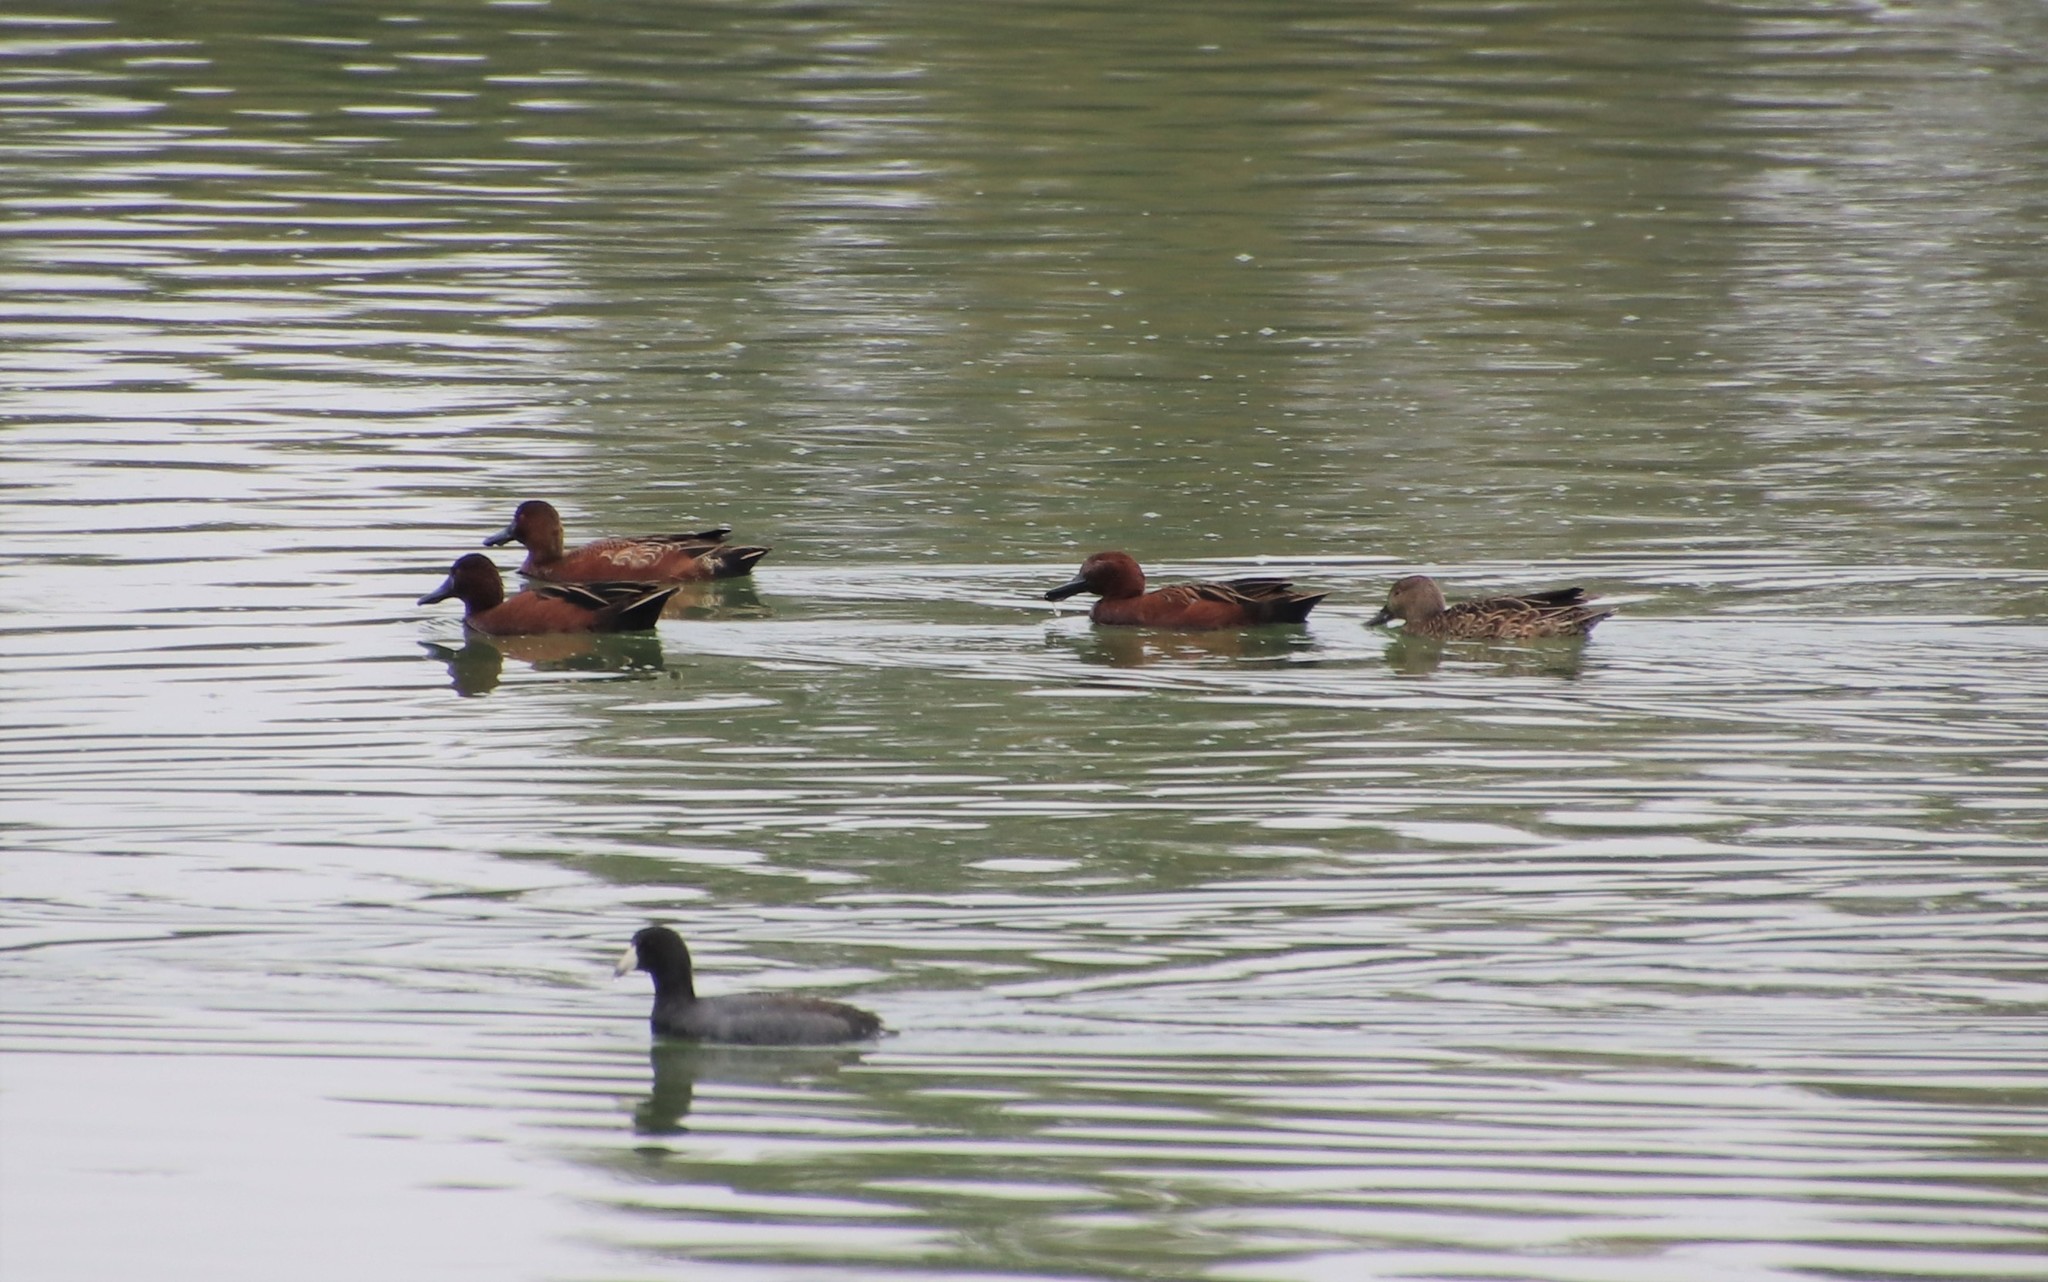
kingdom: Animalia
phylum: Chordata
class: Aves
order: Anseriformes
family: Anatidae
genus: Spatula
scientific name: Spatula cyanoptera
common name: Cinnamon teal
